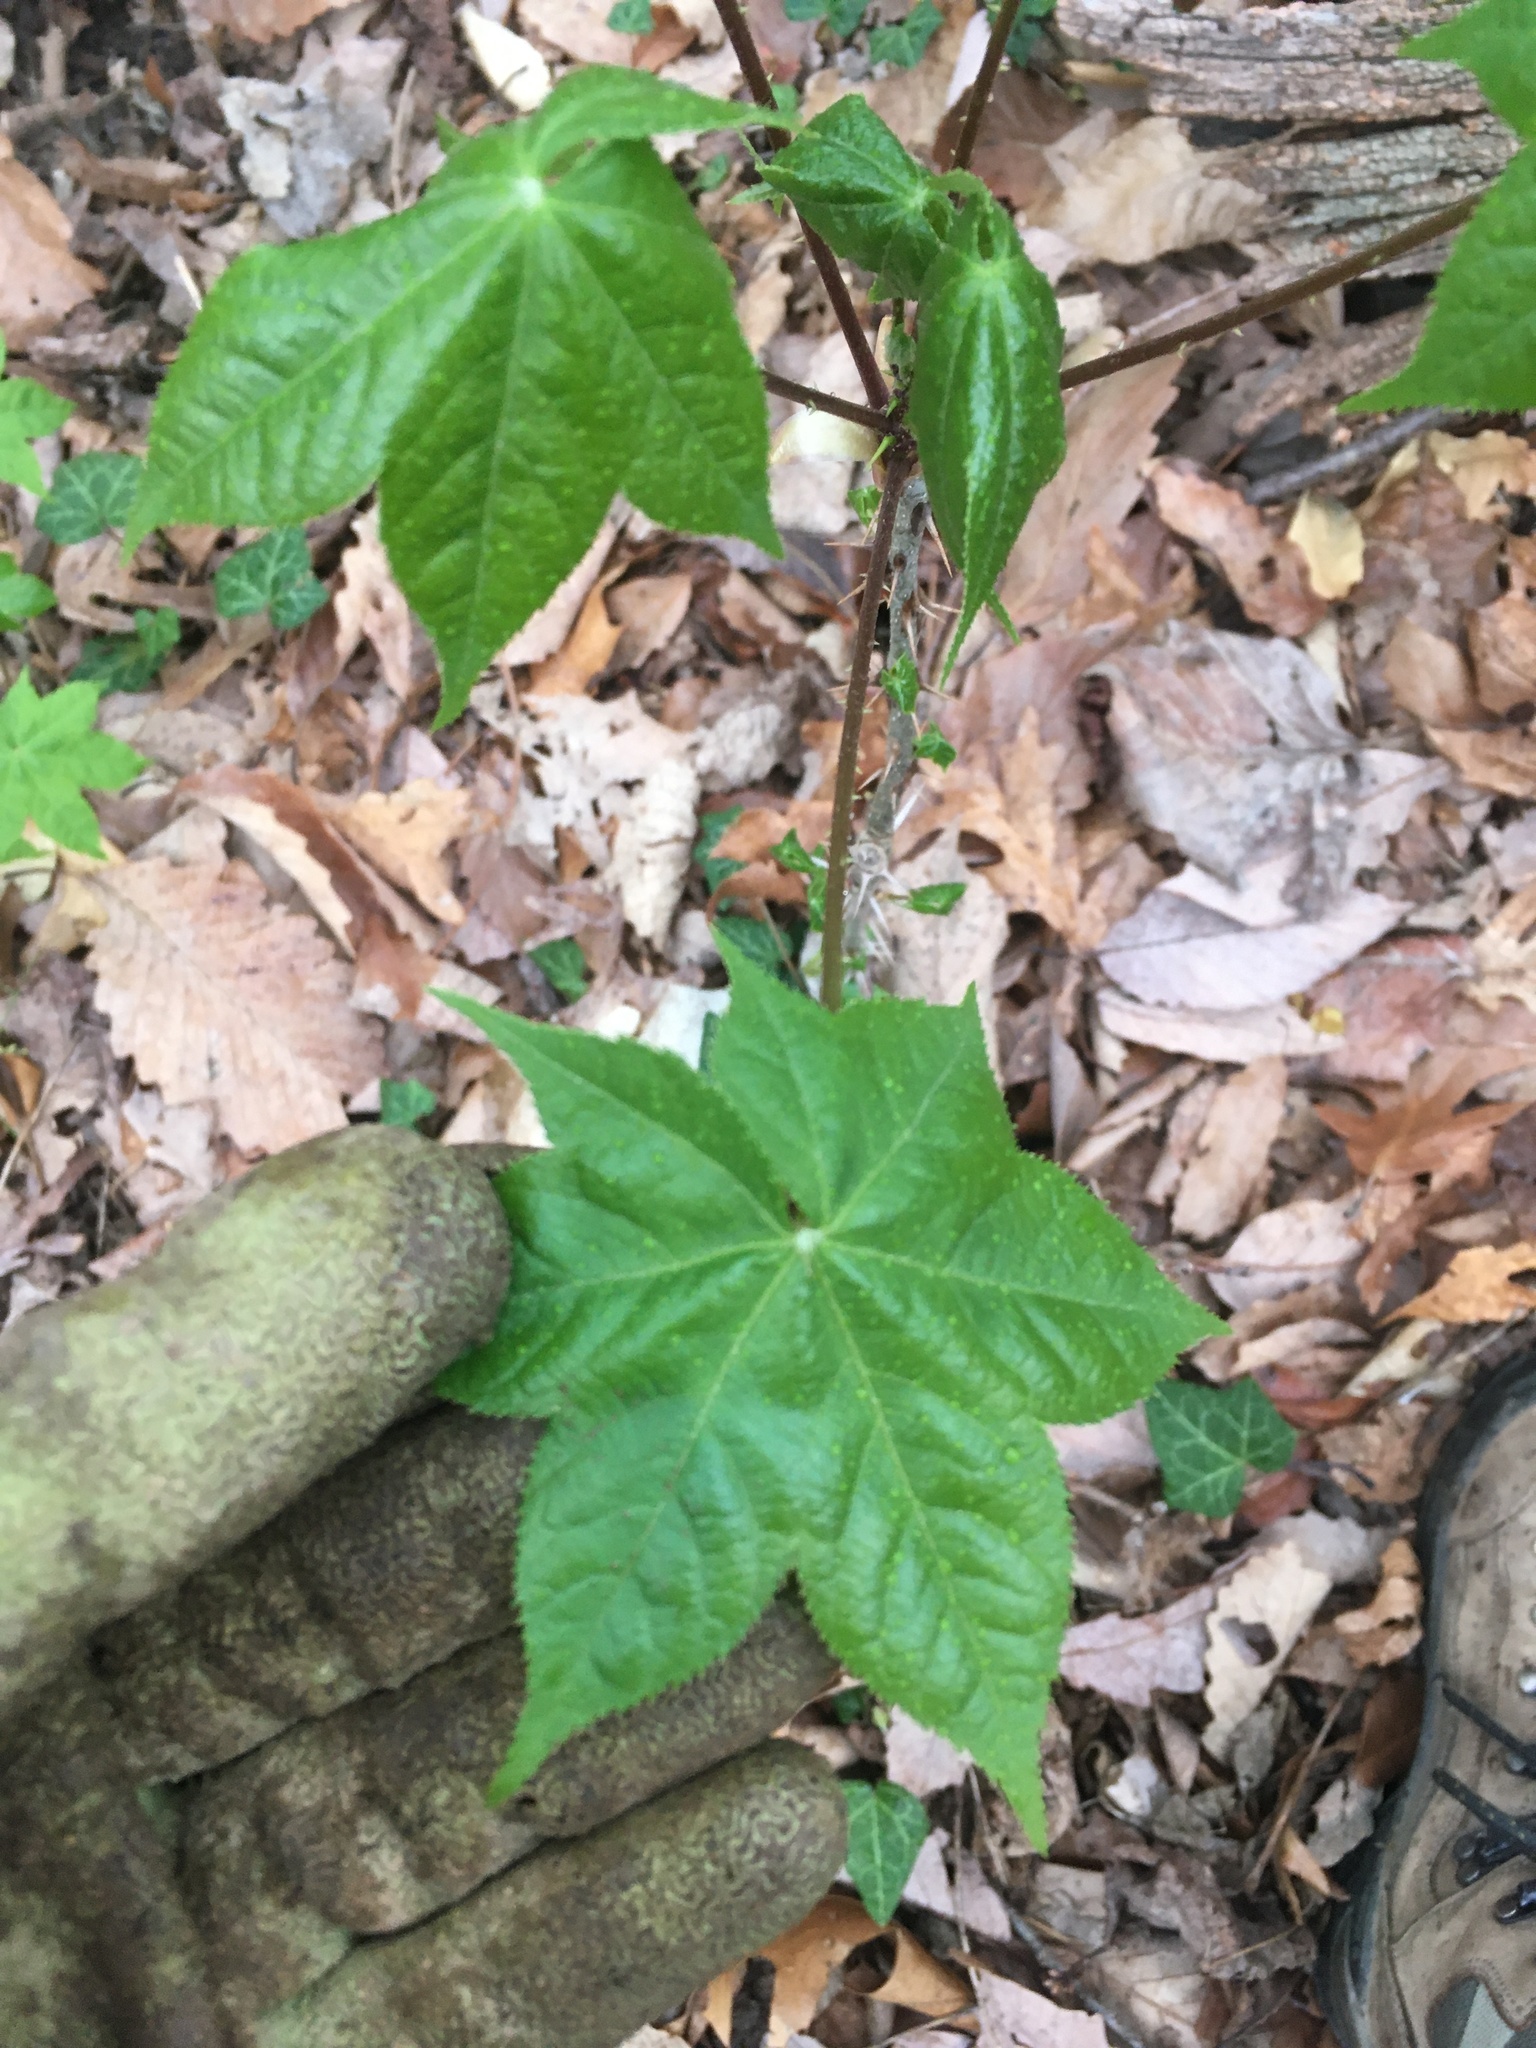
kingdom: Plantae
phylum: Tracheophyta
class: Magnoliopsida
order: Apiales
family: Araliaceae
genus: Kalopanax
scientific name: Kalopanax septemlobus
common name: Castor aralia
